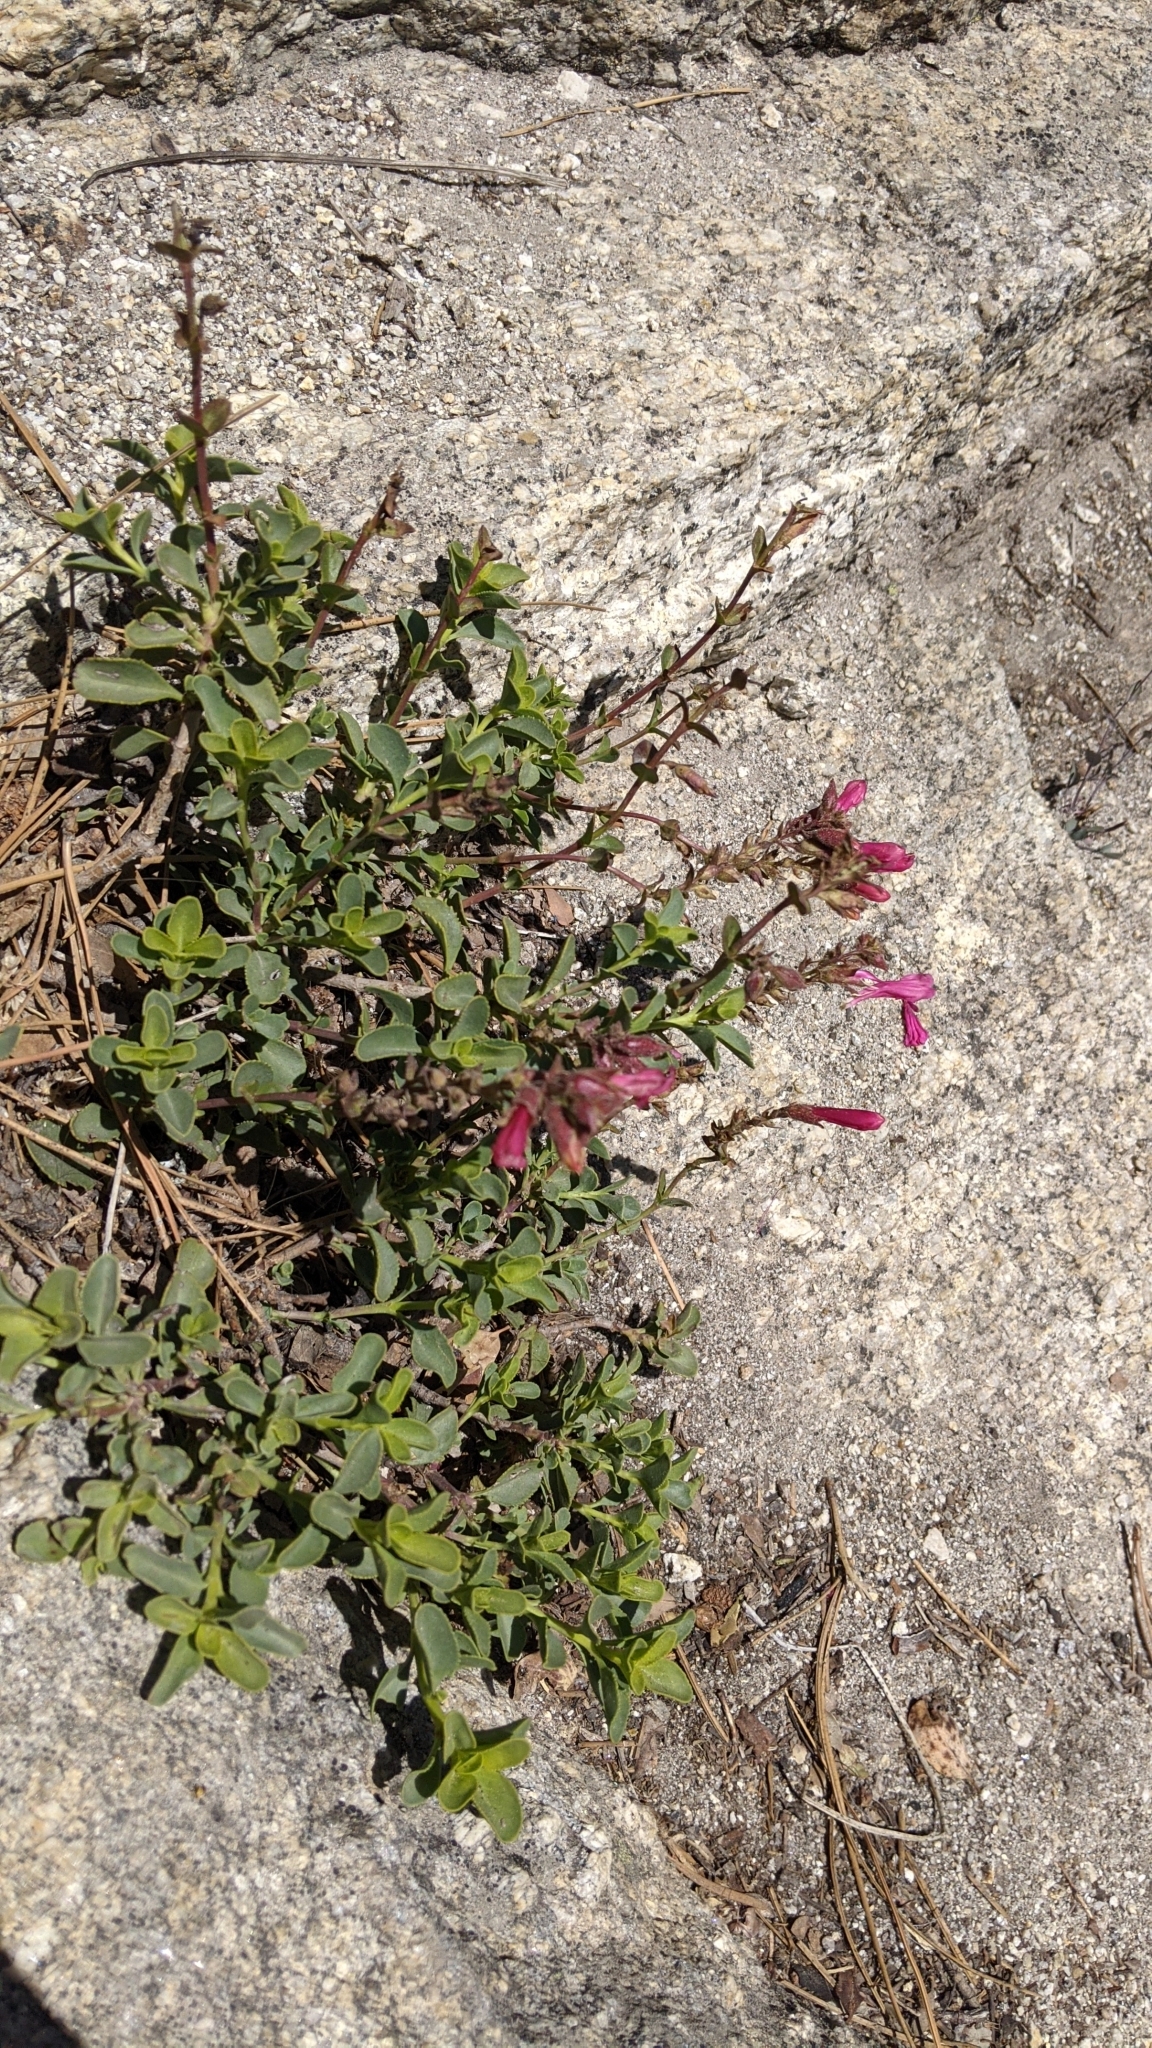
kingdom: Plantae
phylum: Tracheophyta
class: Magnoliopsida
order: Lamiales
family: Plantaginaceae
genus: Penstemon
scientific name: Penstemon newberryi
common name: Mountain-pride
